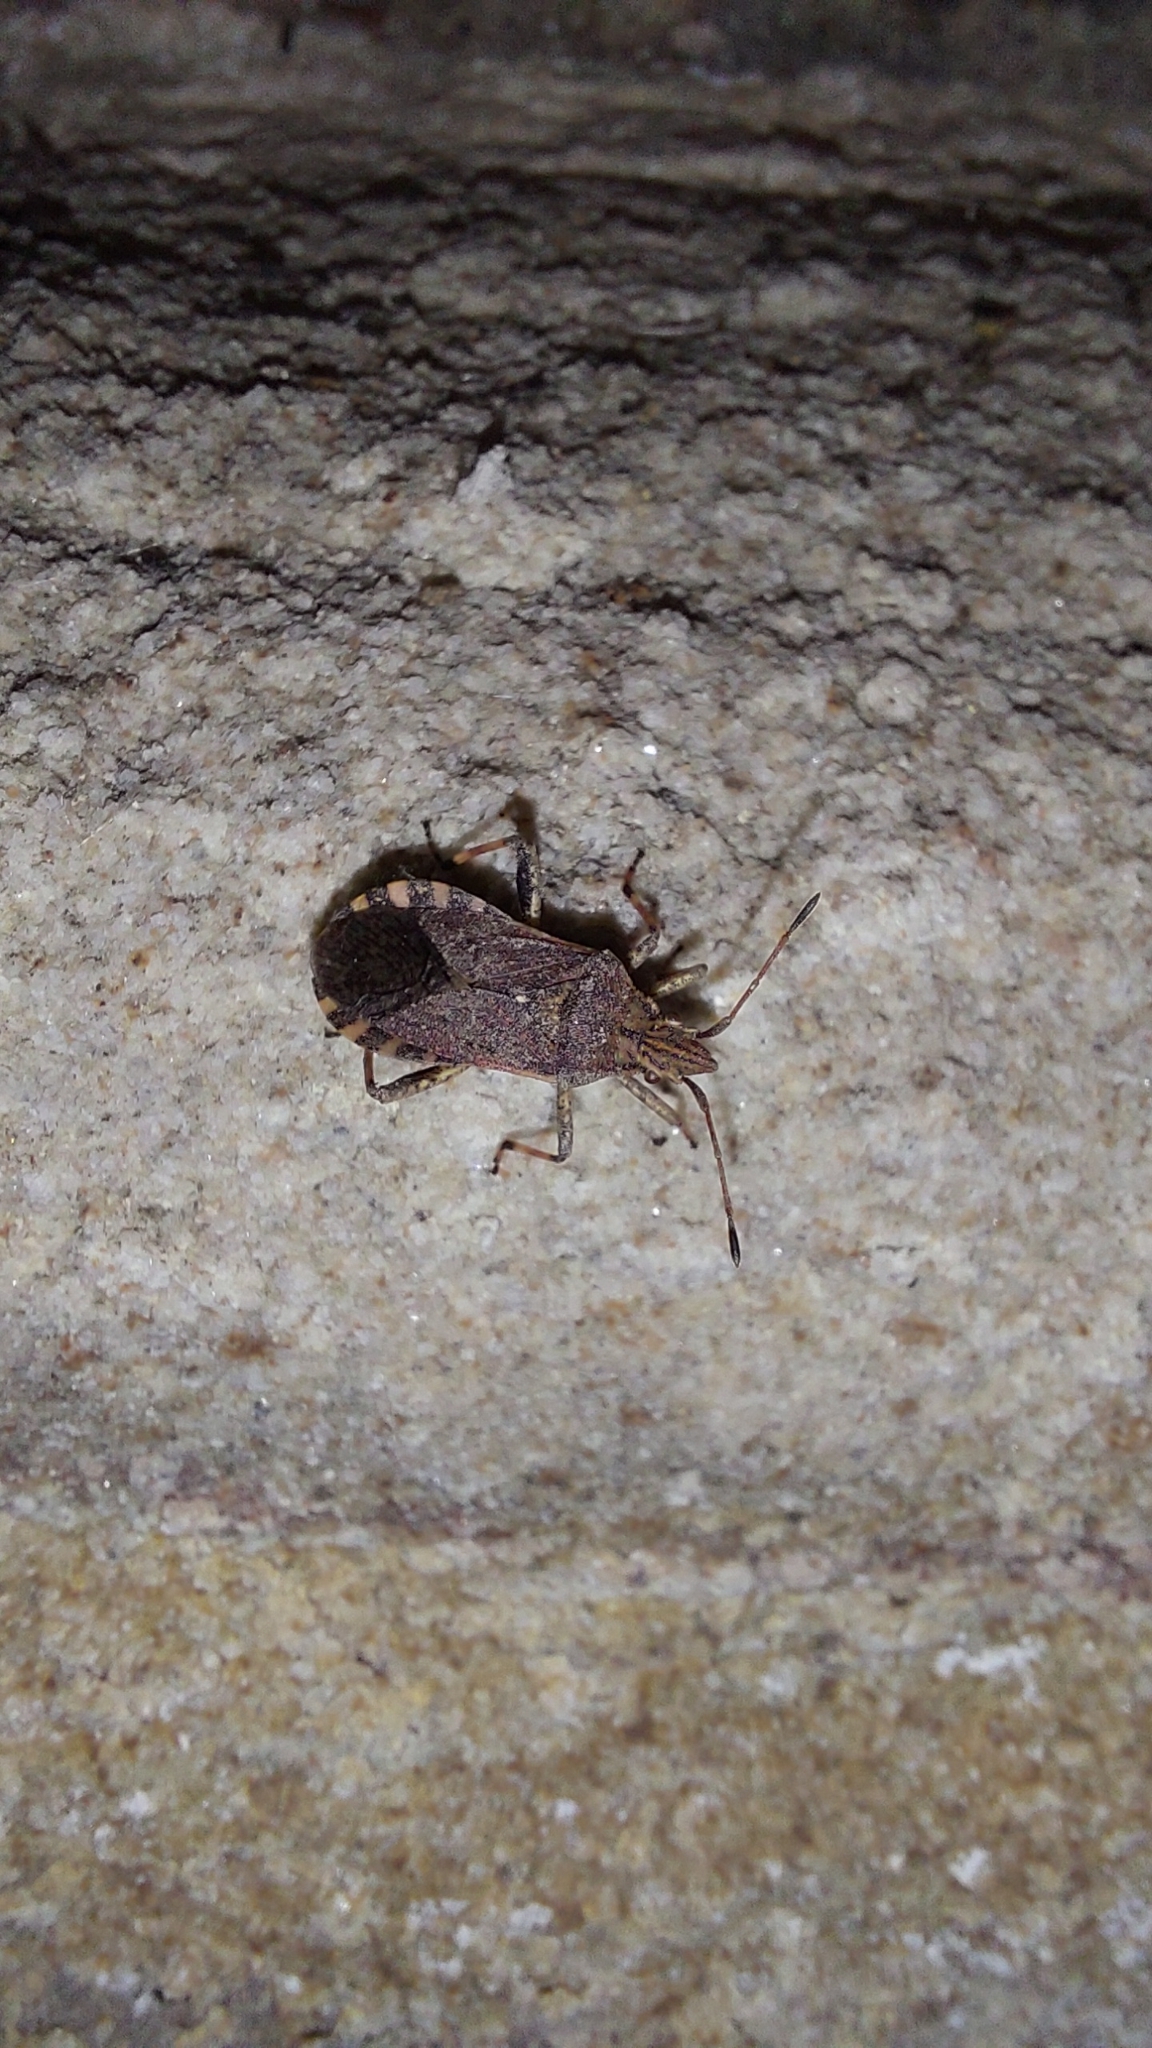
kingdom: Animalia
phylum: Arthropoda
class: Insecta
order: Hemiptera
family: Coreidae
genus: Ceraleptus
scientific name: Ceraleptus gracilicornis
